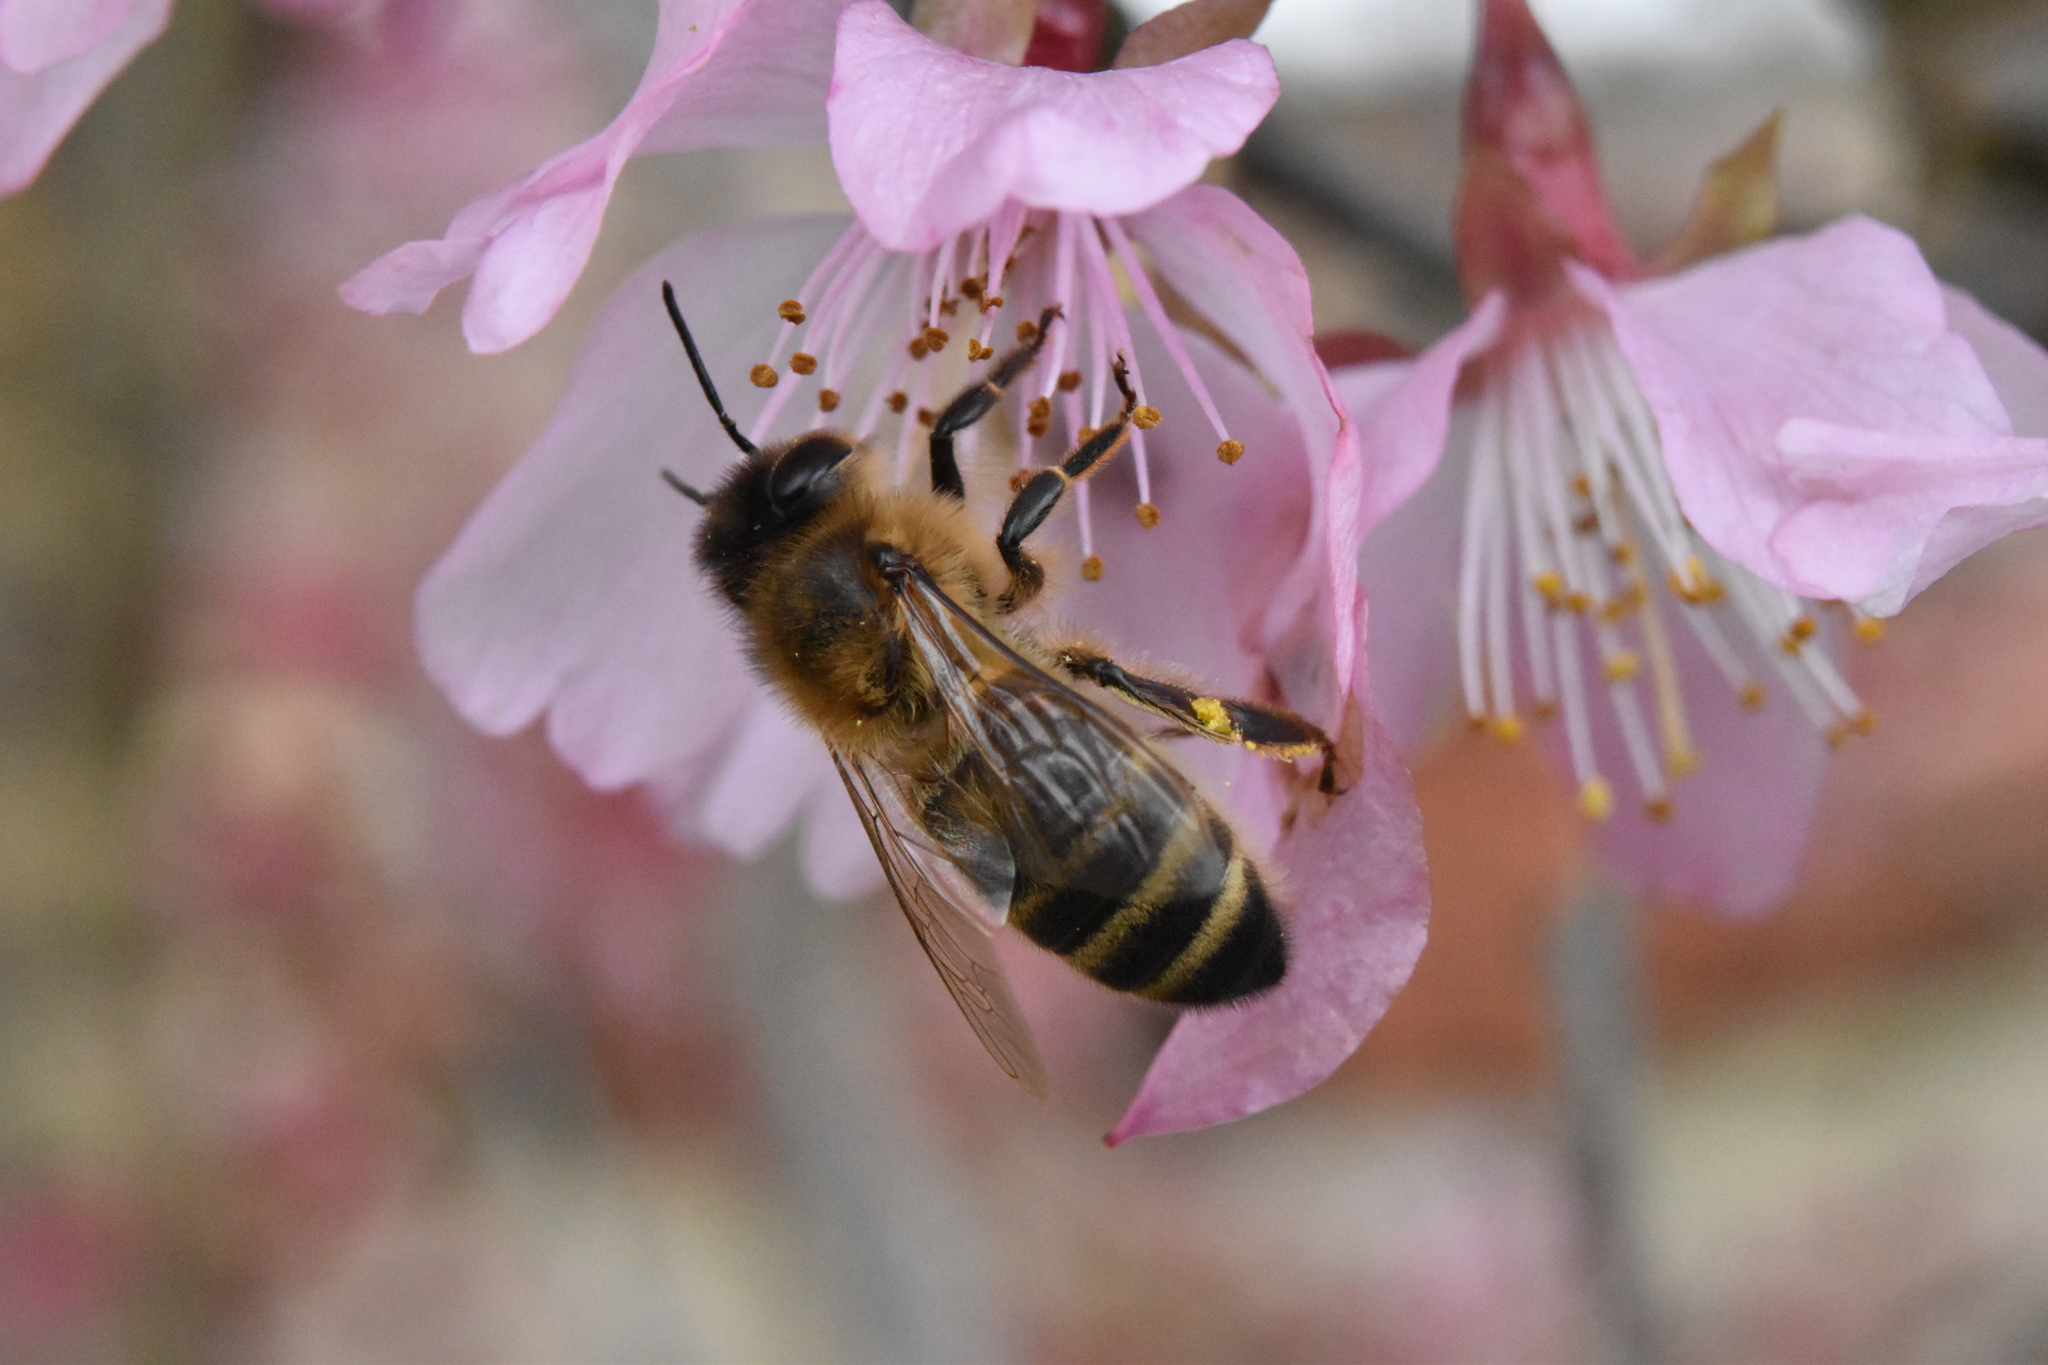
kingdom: Animalia
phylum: Arthropoda
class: Insecta
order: Hymenoptera
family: Apidae
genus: Apis
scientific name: Apis mellifera
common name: Honey bee
